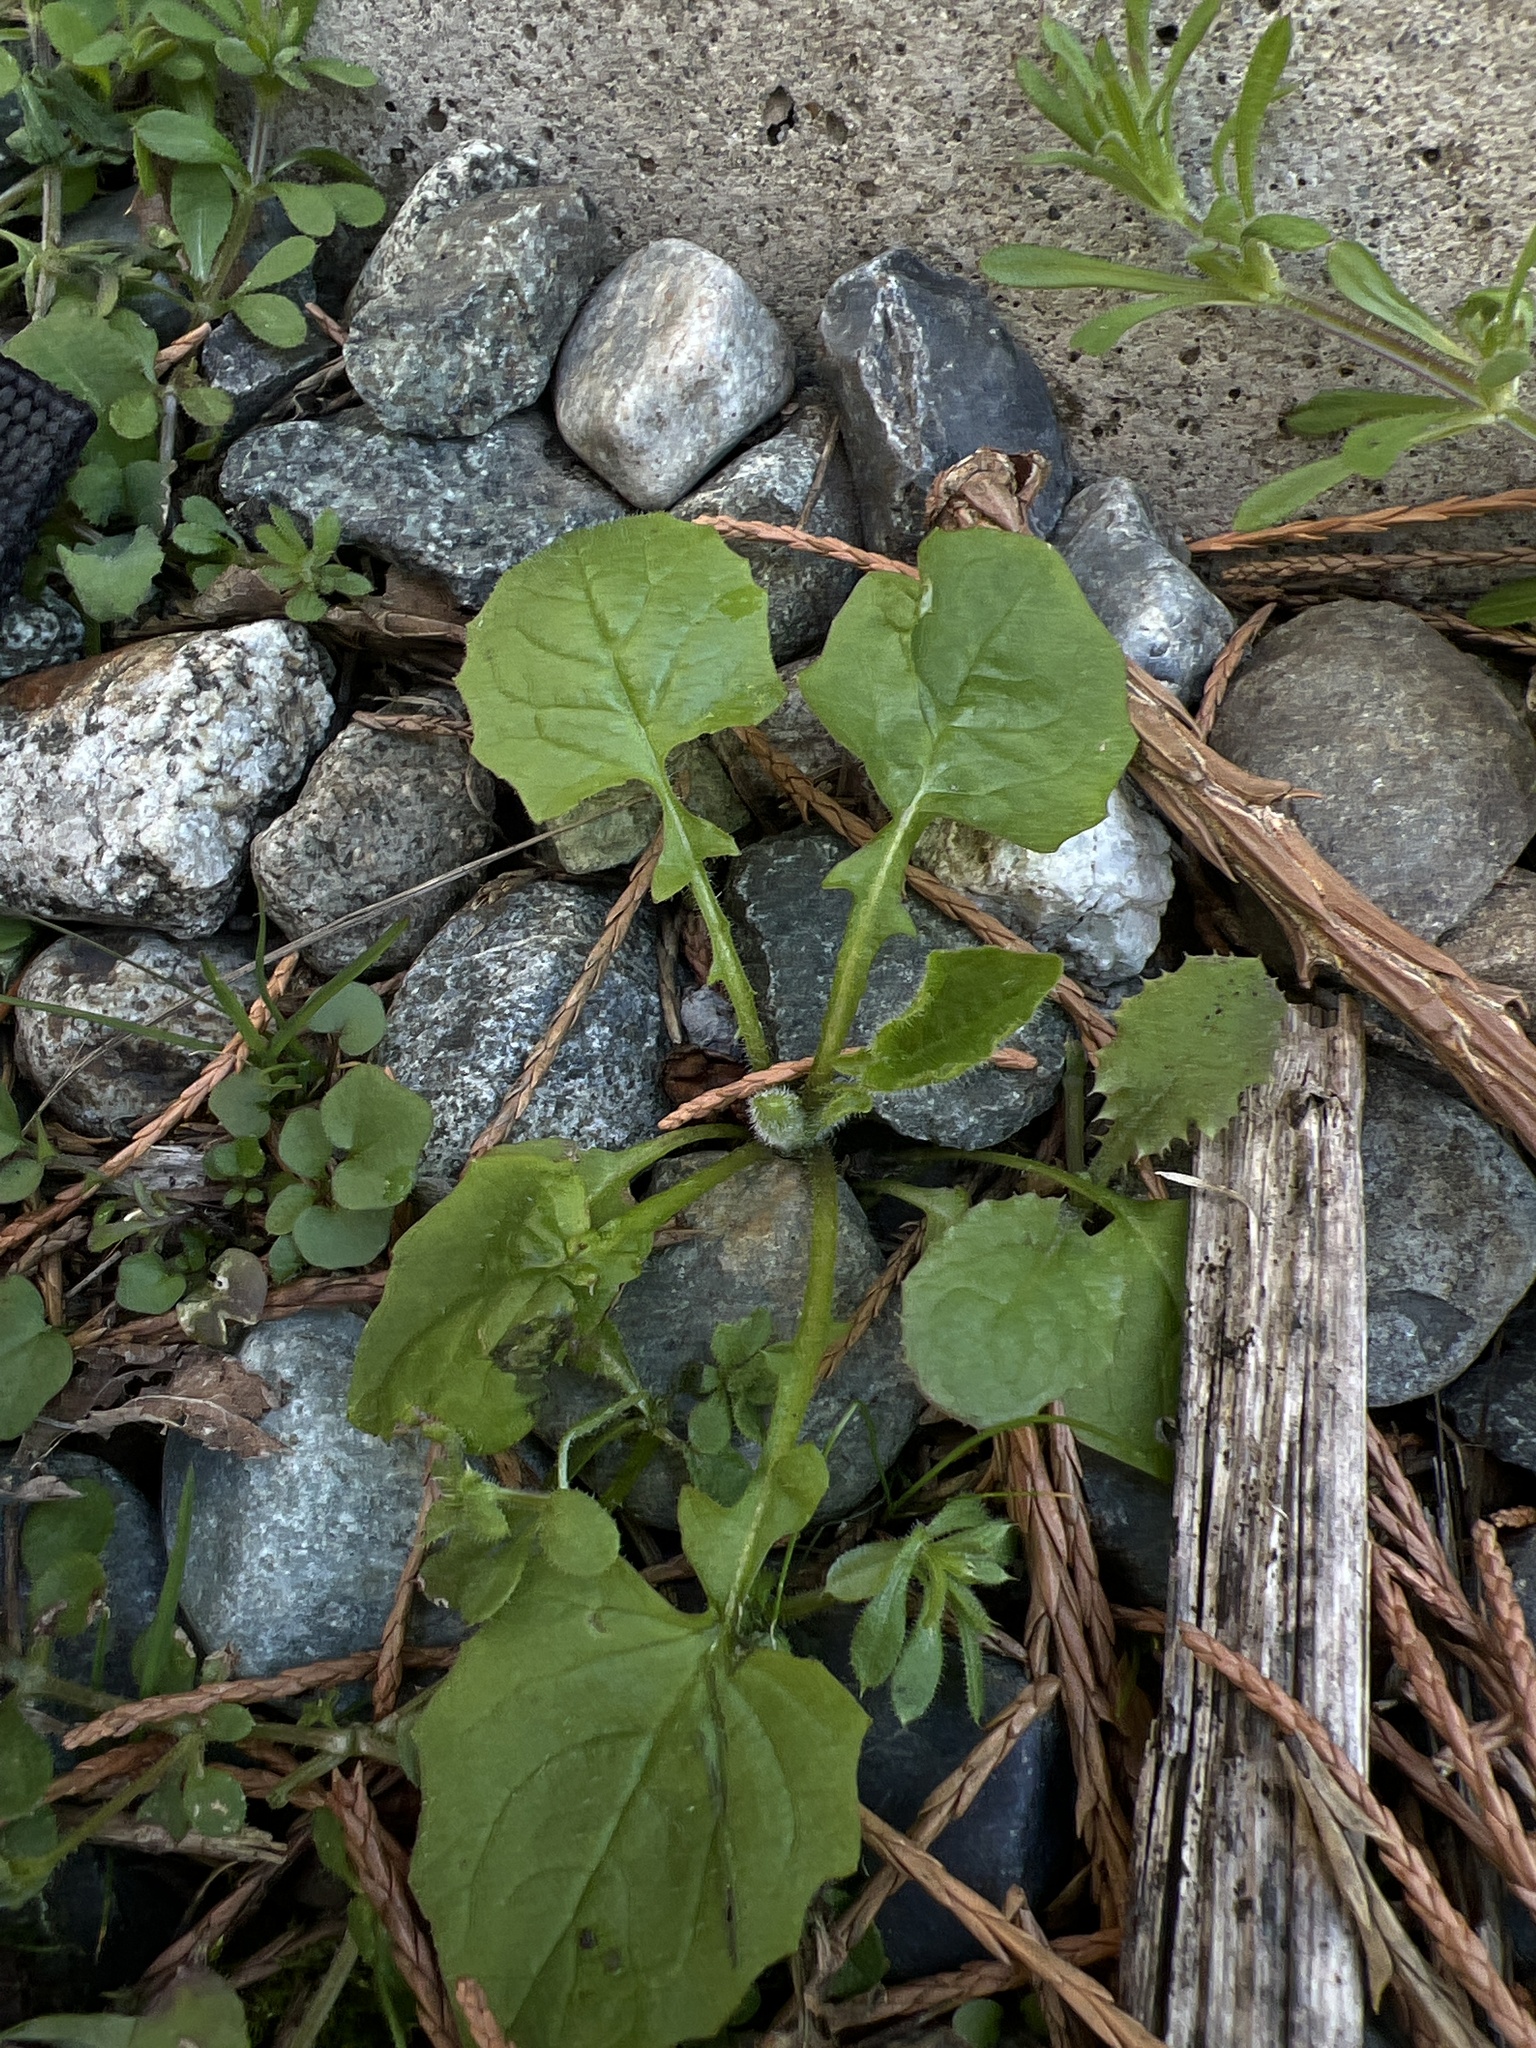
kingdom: Plantae
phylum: Tracheophyta
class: Magnoliopsida
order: Asterales
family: Asteraceae
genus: Lapsana
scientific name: Lapsana communis
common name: Nipplewort
